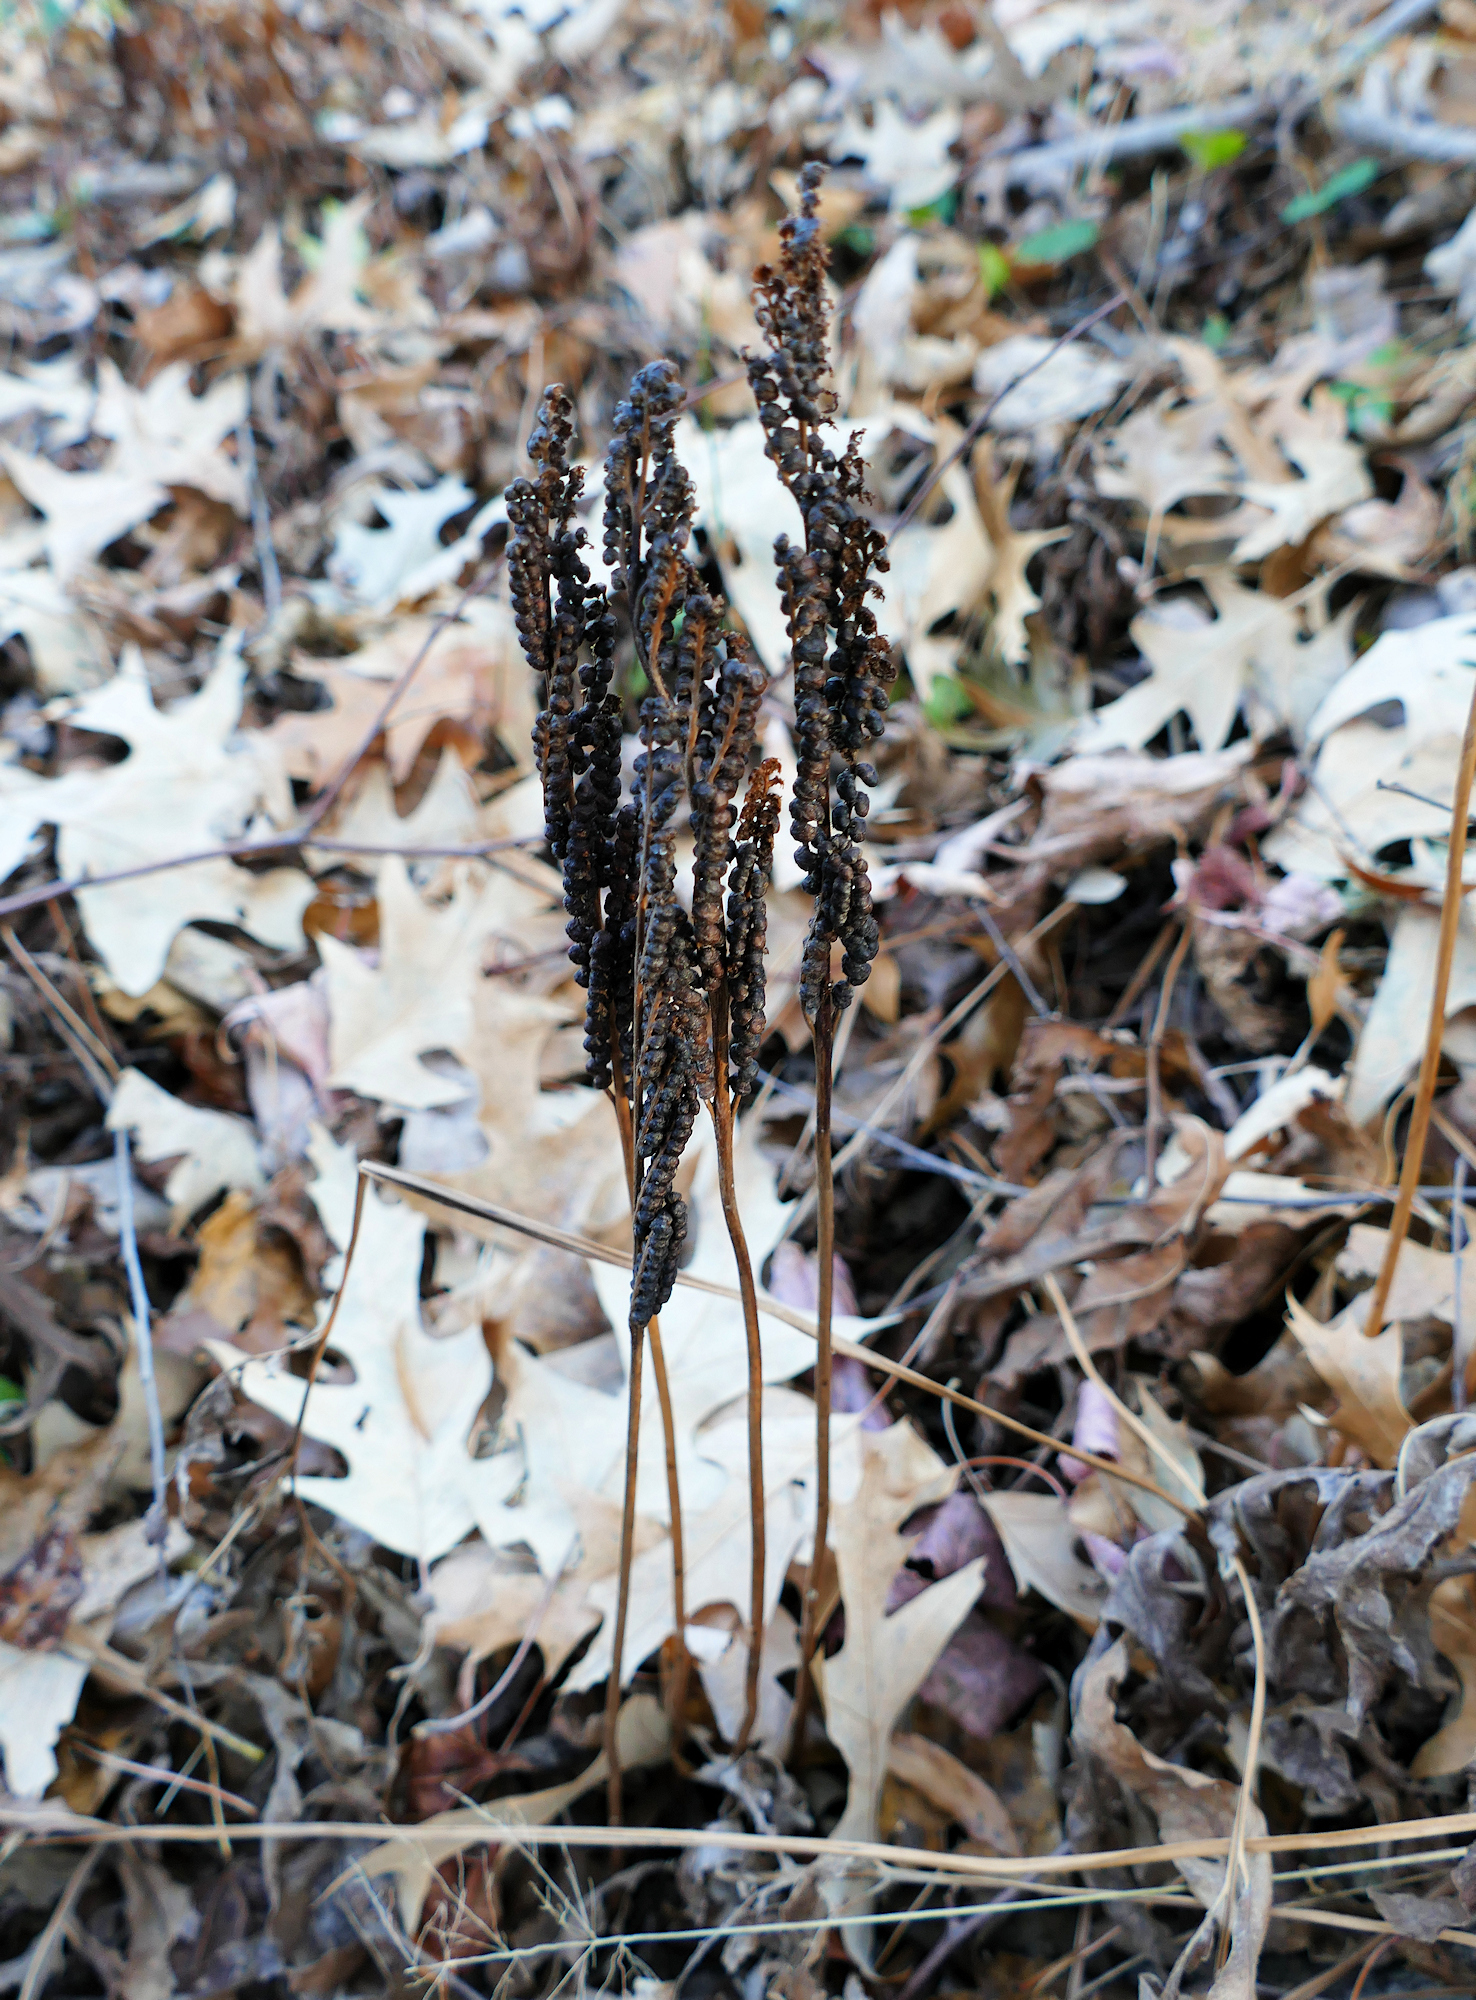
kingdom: Plantae
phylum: Tracheophyta
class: Polypodiopsida
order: Polypodiales
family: Onocleaceae
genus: Onoclea
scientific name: Onoclea sensibilis
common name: Sensitive fern
